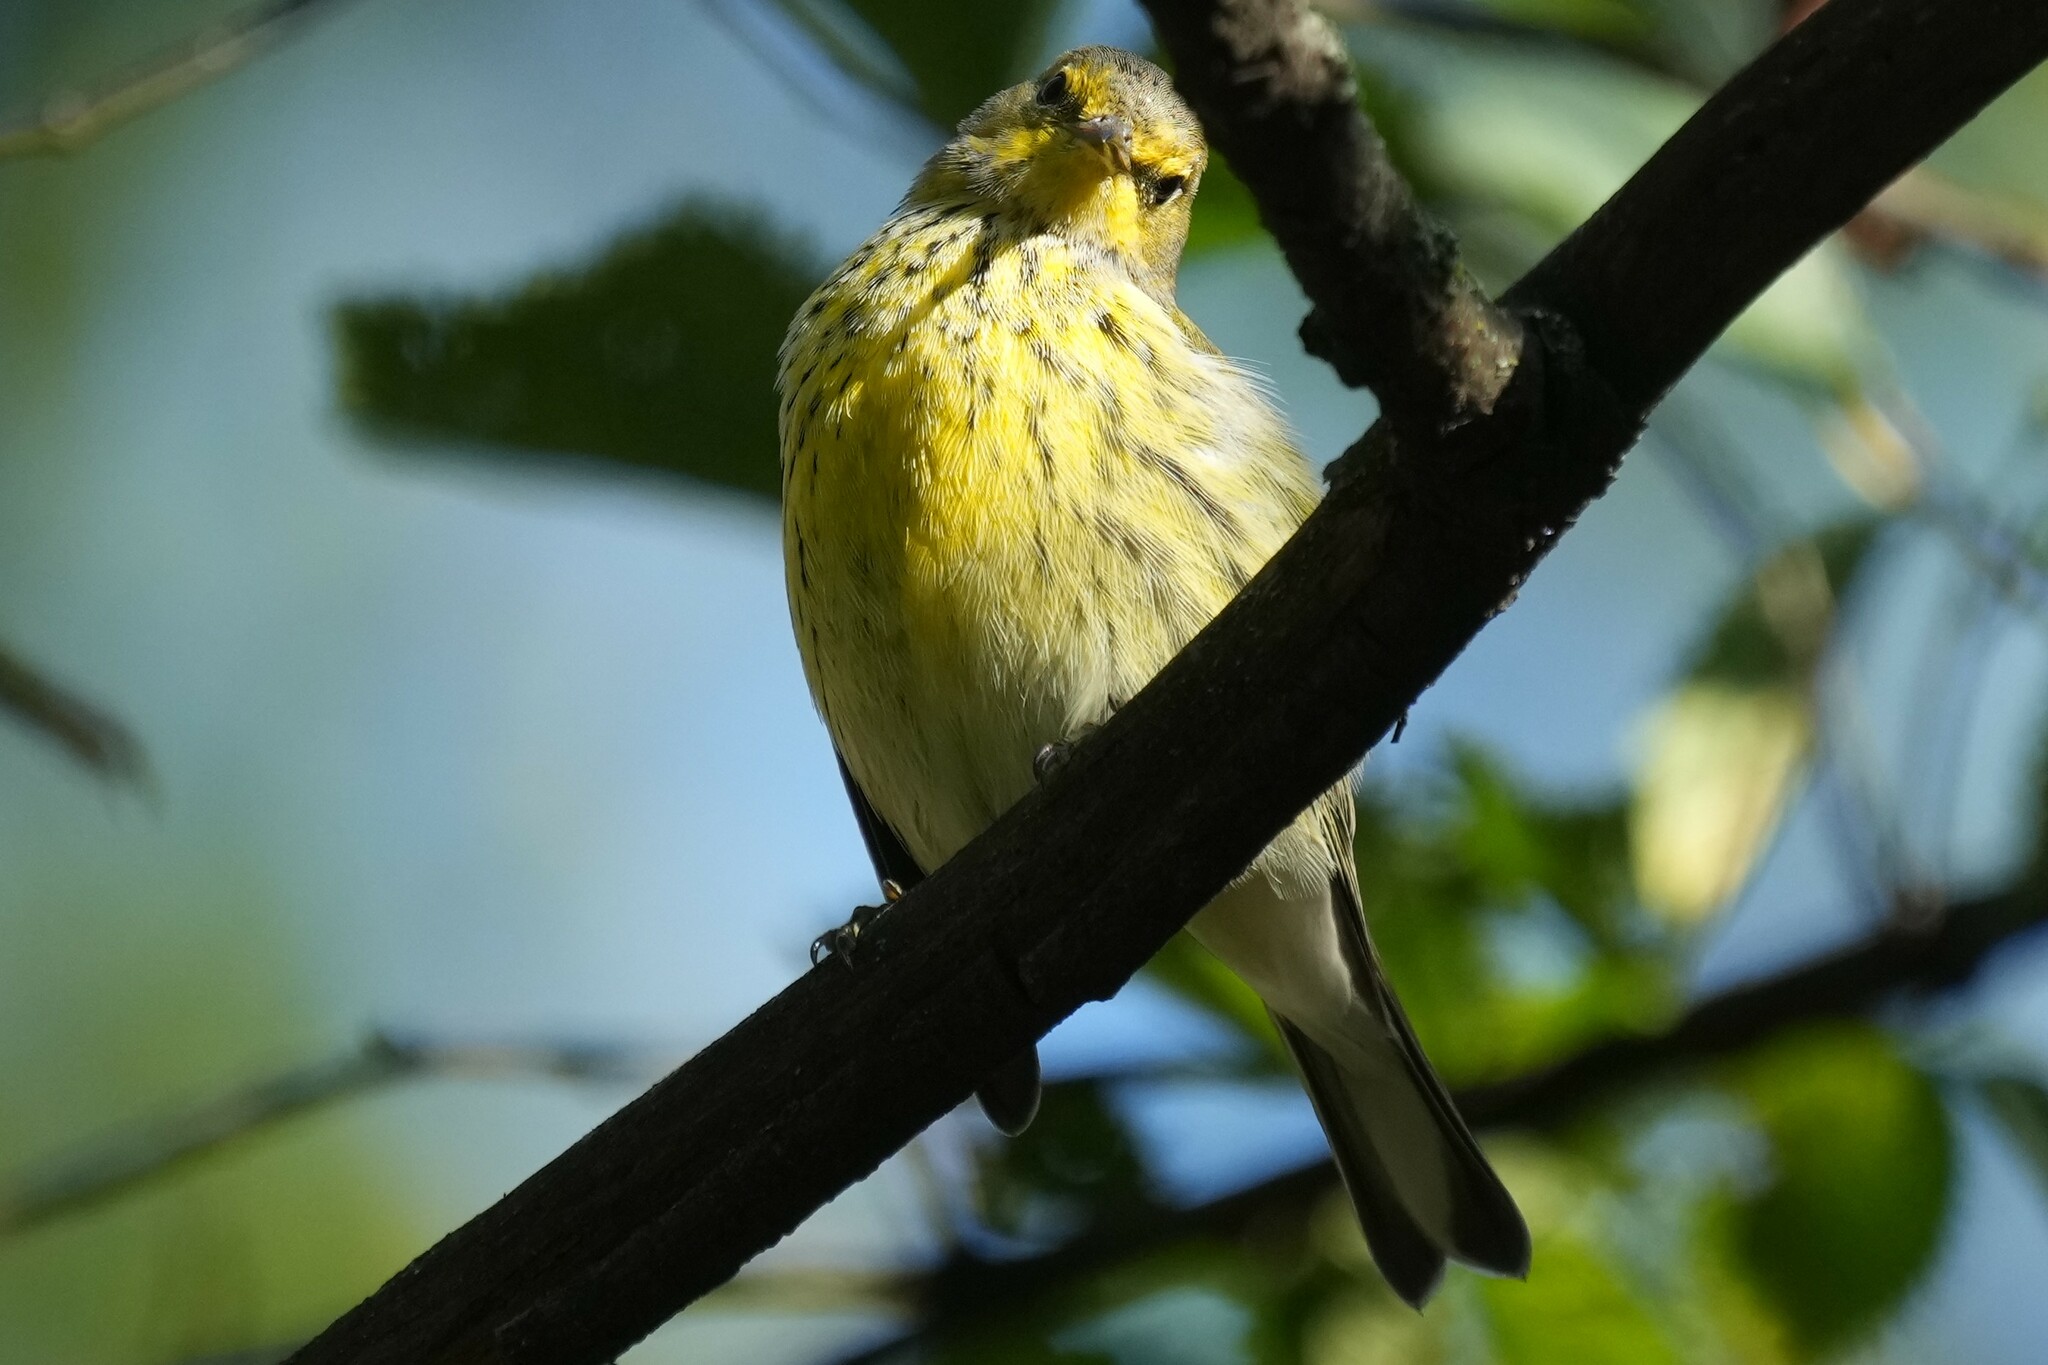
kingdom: Animalia
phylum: Chordata
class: Aves
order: Passeriformes
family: Parulidae
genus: Setophaga
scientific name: Setophaga tigrina
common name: Cape may warbler
